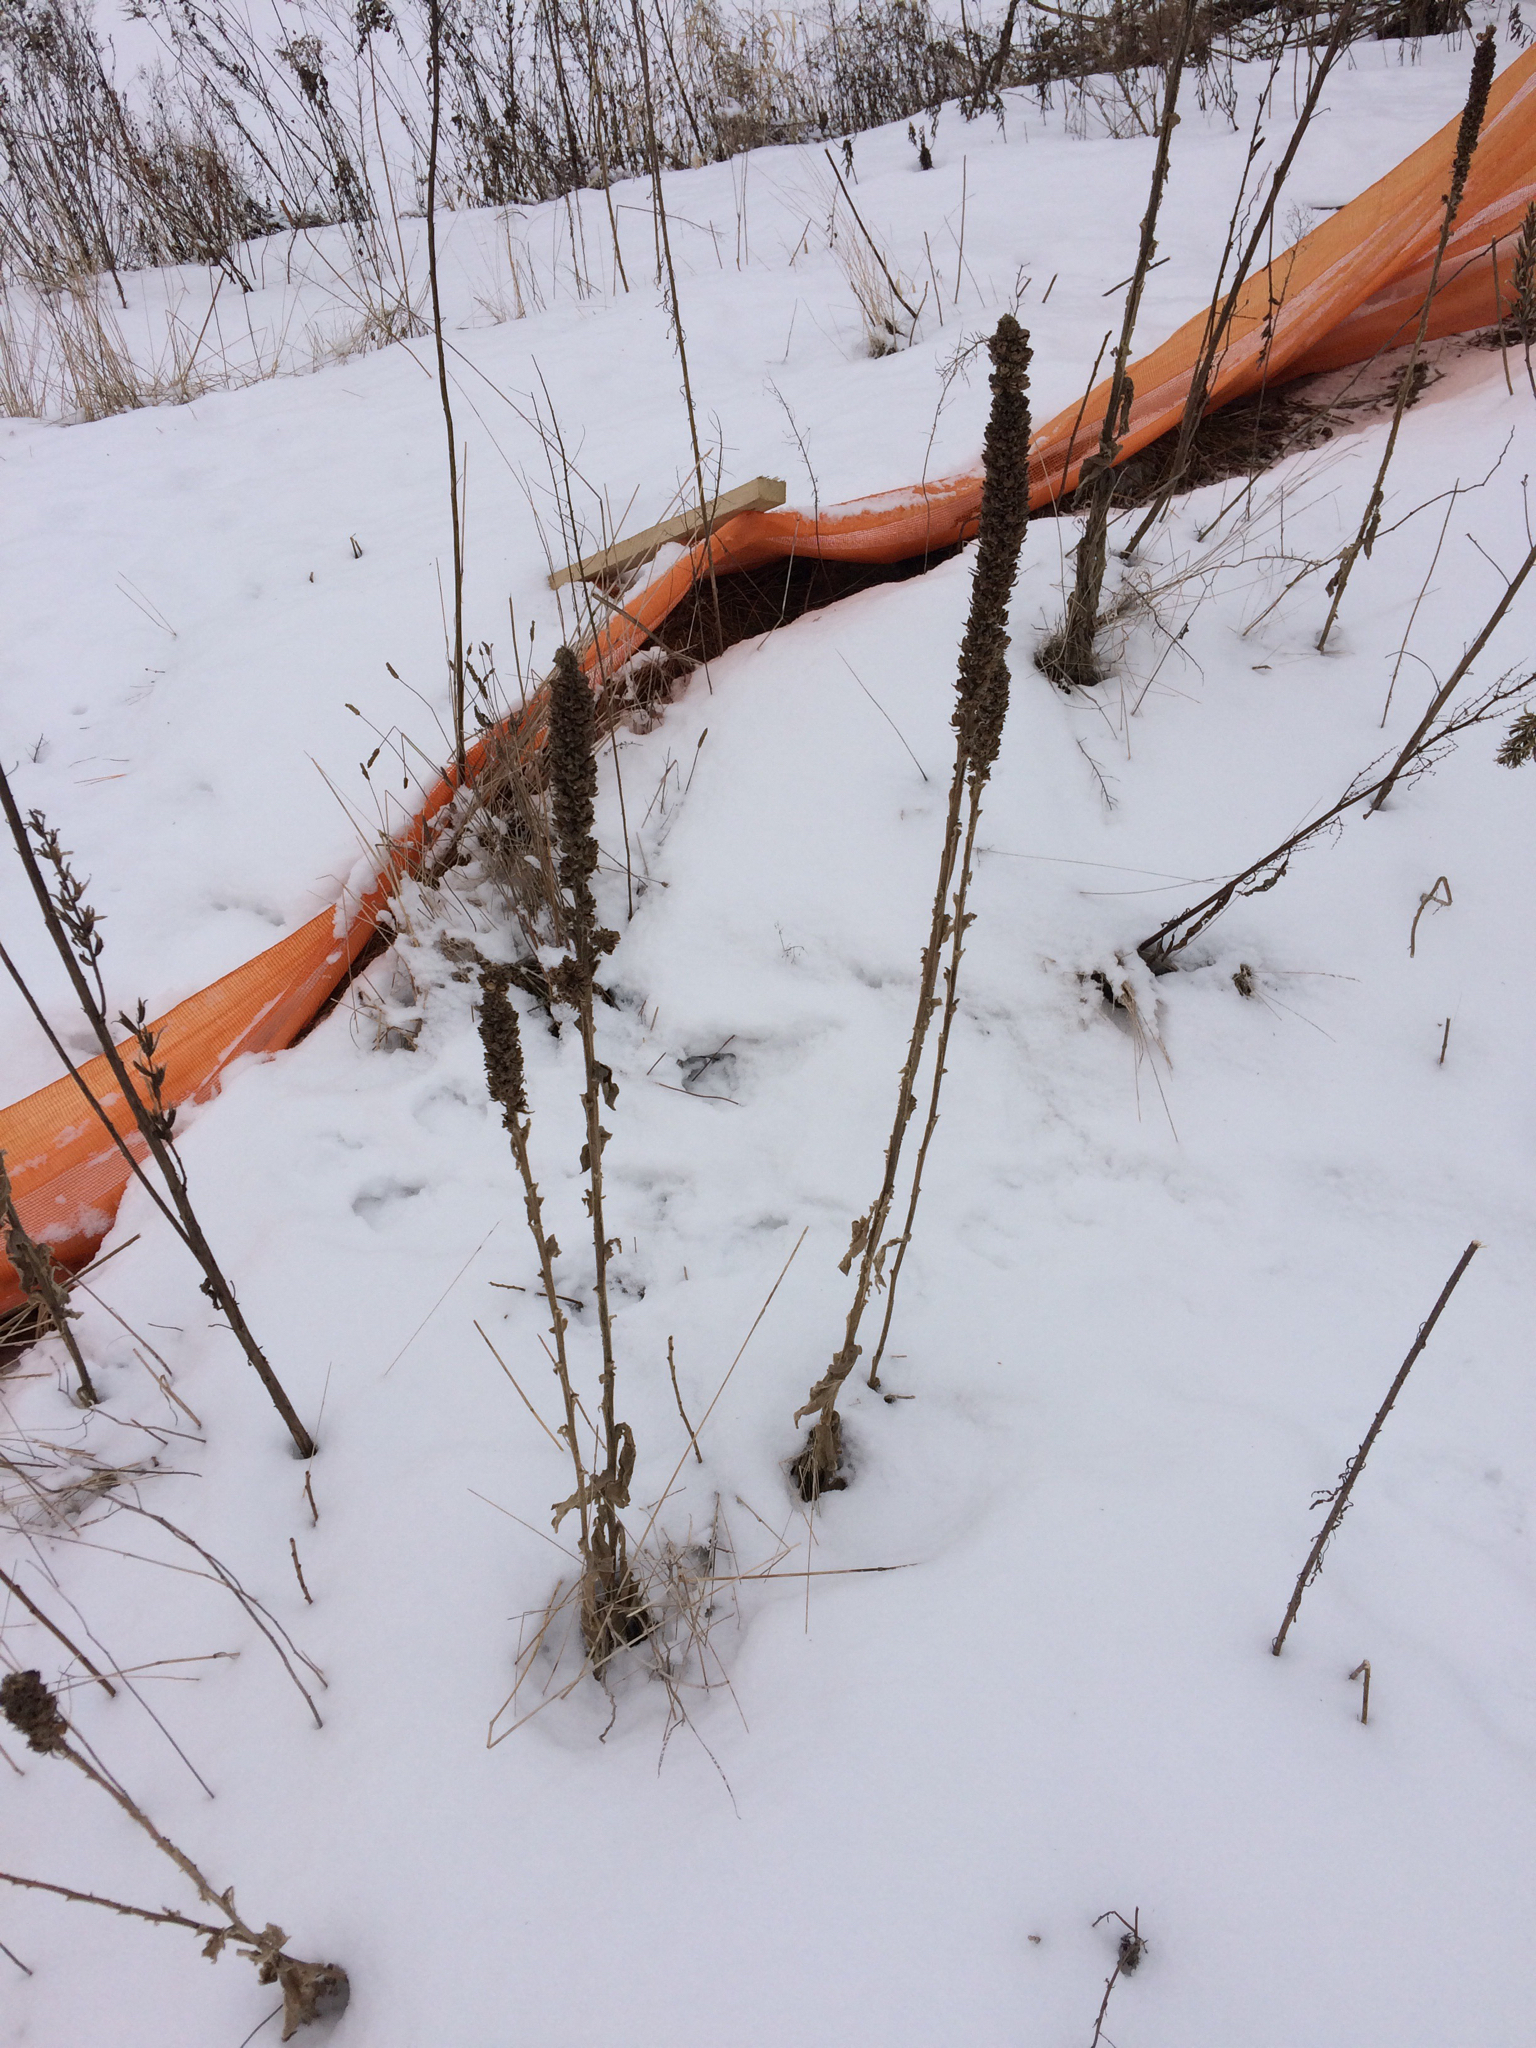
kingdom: Plantae
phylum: Tracheophyta
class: Magnoliopsida
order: Lamiales
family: Scrophulariaceae
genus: Verbascum
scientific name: Verbascum thapsus
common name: Common mullein
